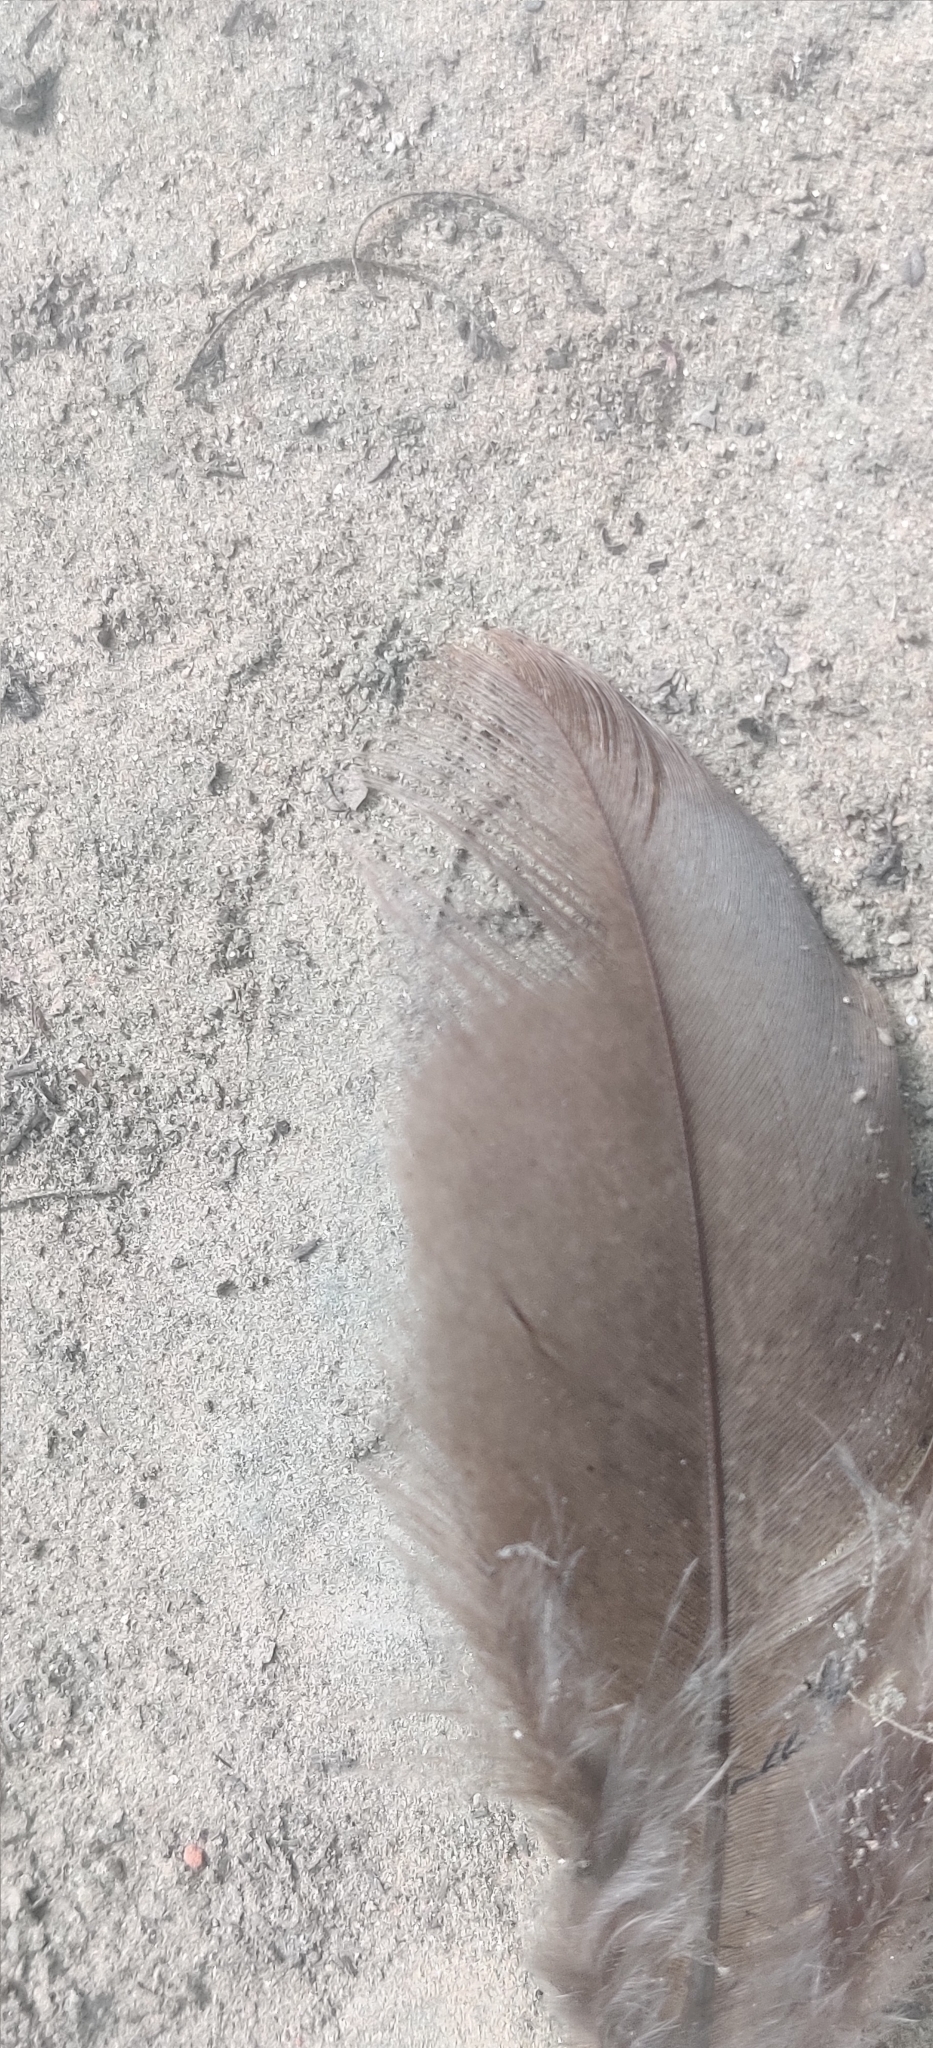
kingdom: Animalia
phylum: Chordata
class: Aves
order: Galliformes
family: Phasianidae
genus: Pavo
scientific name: Pavo cristatus
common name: Indian peafowl
